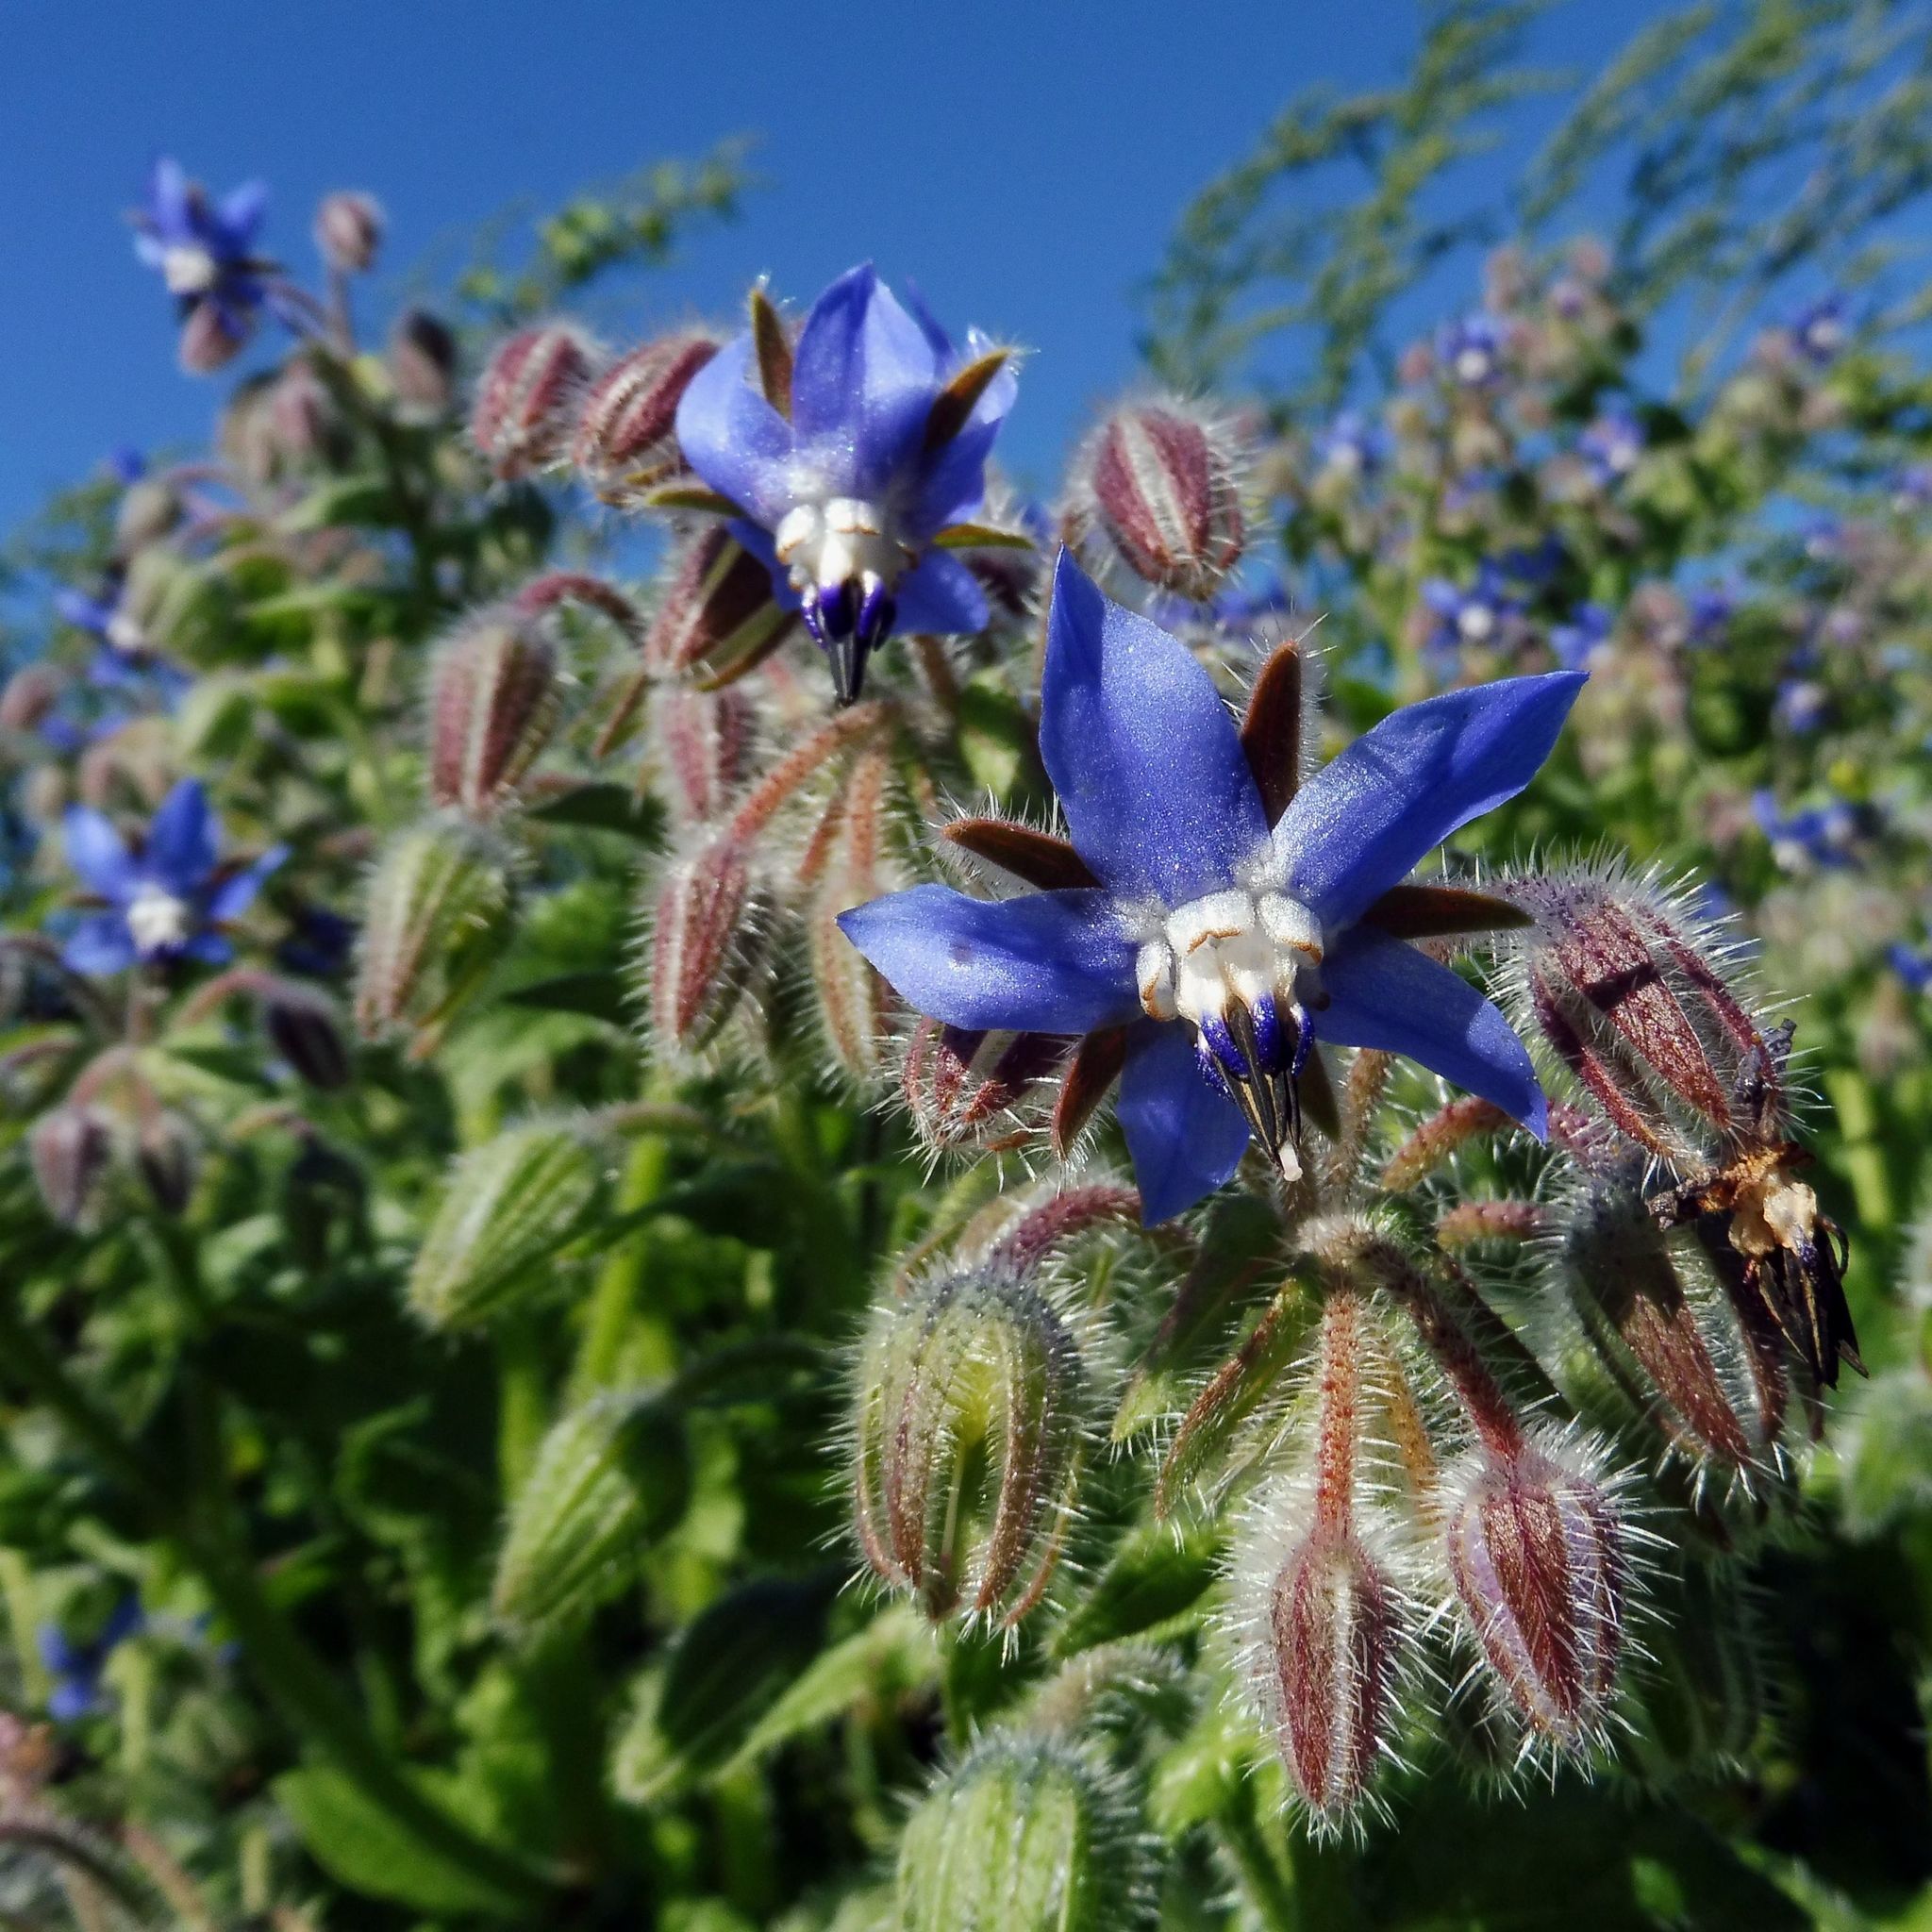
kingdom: Plantae
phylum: Tracheophyta
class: Magnoliopsida
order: Boraginales
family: Boraginaceae
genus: Borago
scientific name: Borago officinalis
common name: Borage
